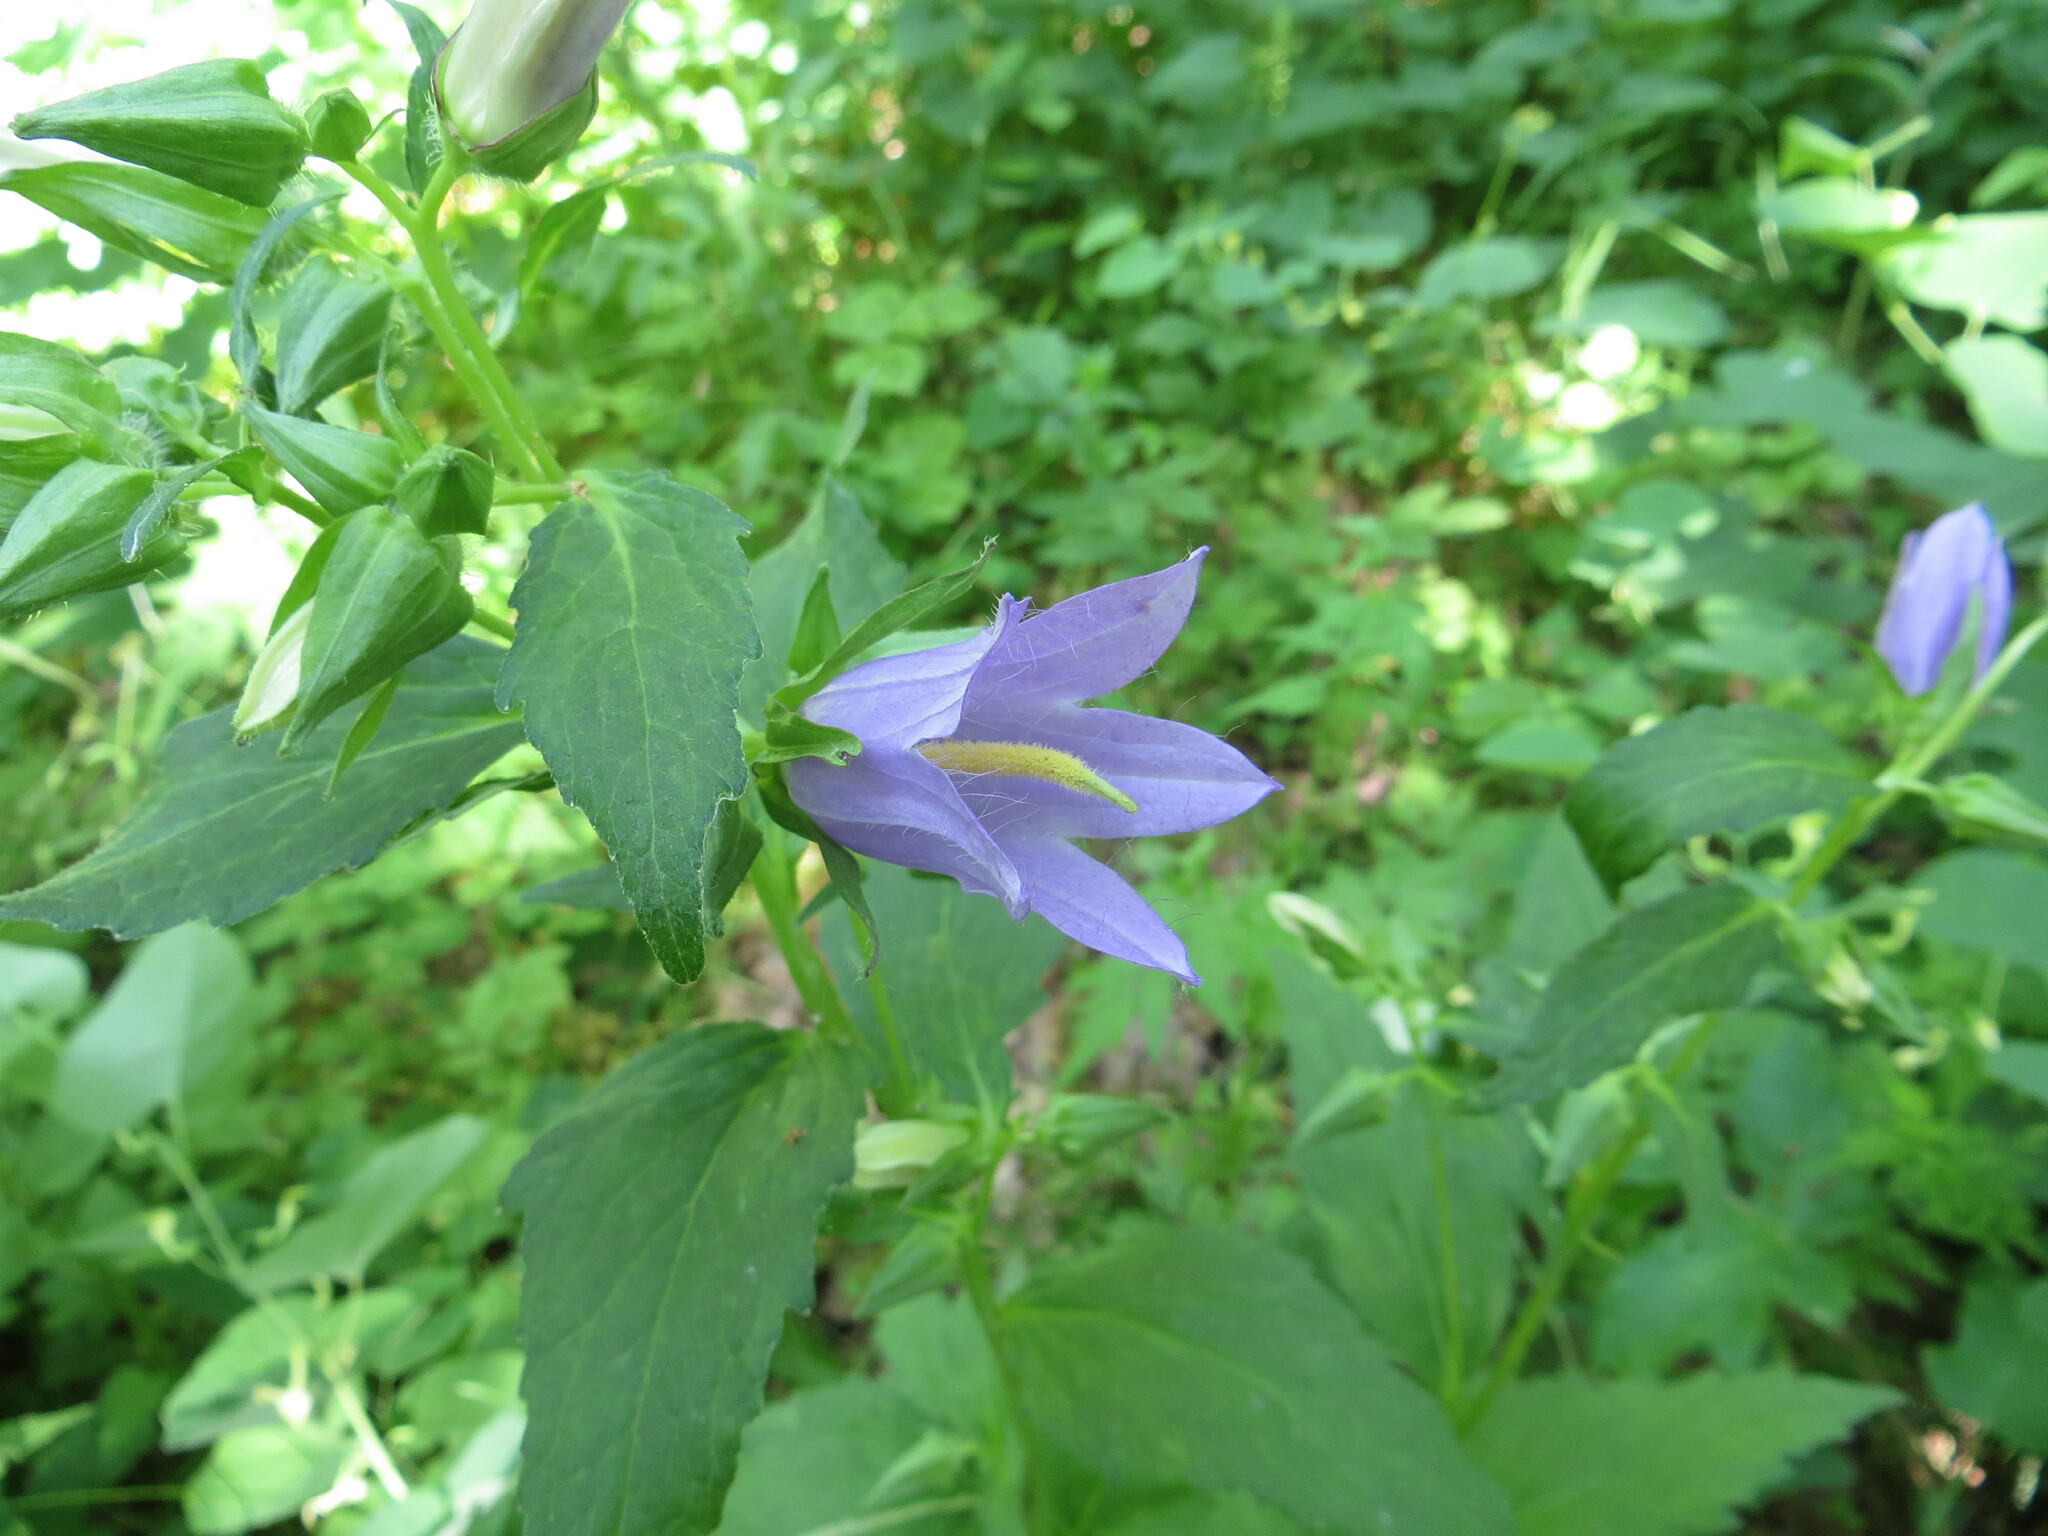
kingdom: Plantae
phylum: Tracheophyta
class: Magnoliopsida
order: Asterales
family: Campanulaceae
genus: Campanula
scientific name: Campanula trachelium
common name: Nettle-leaved bellflower
